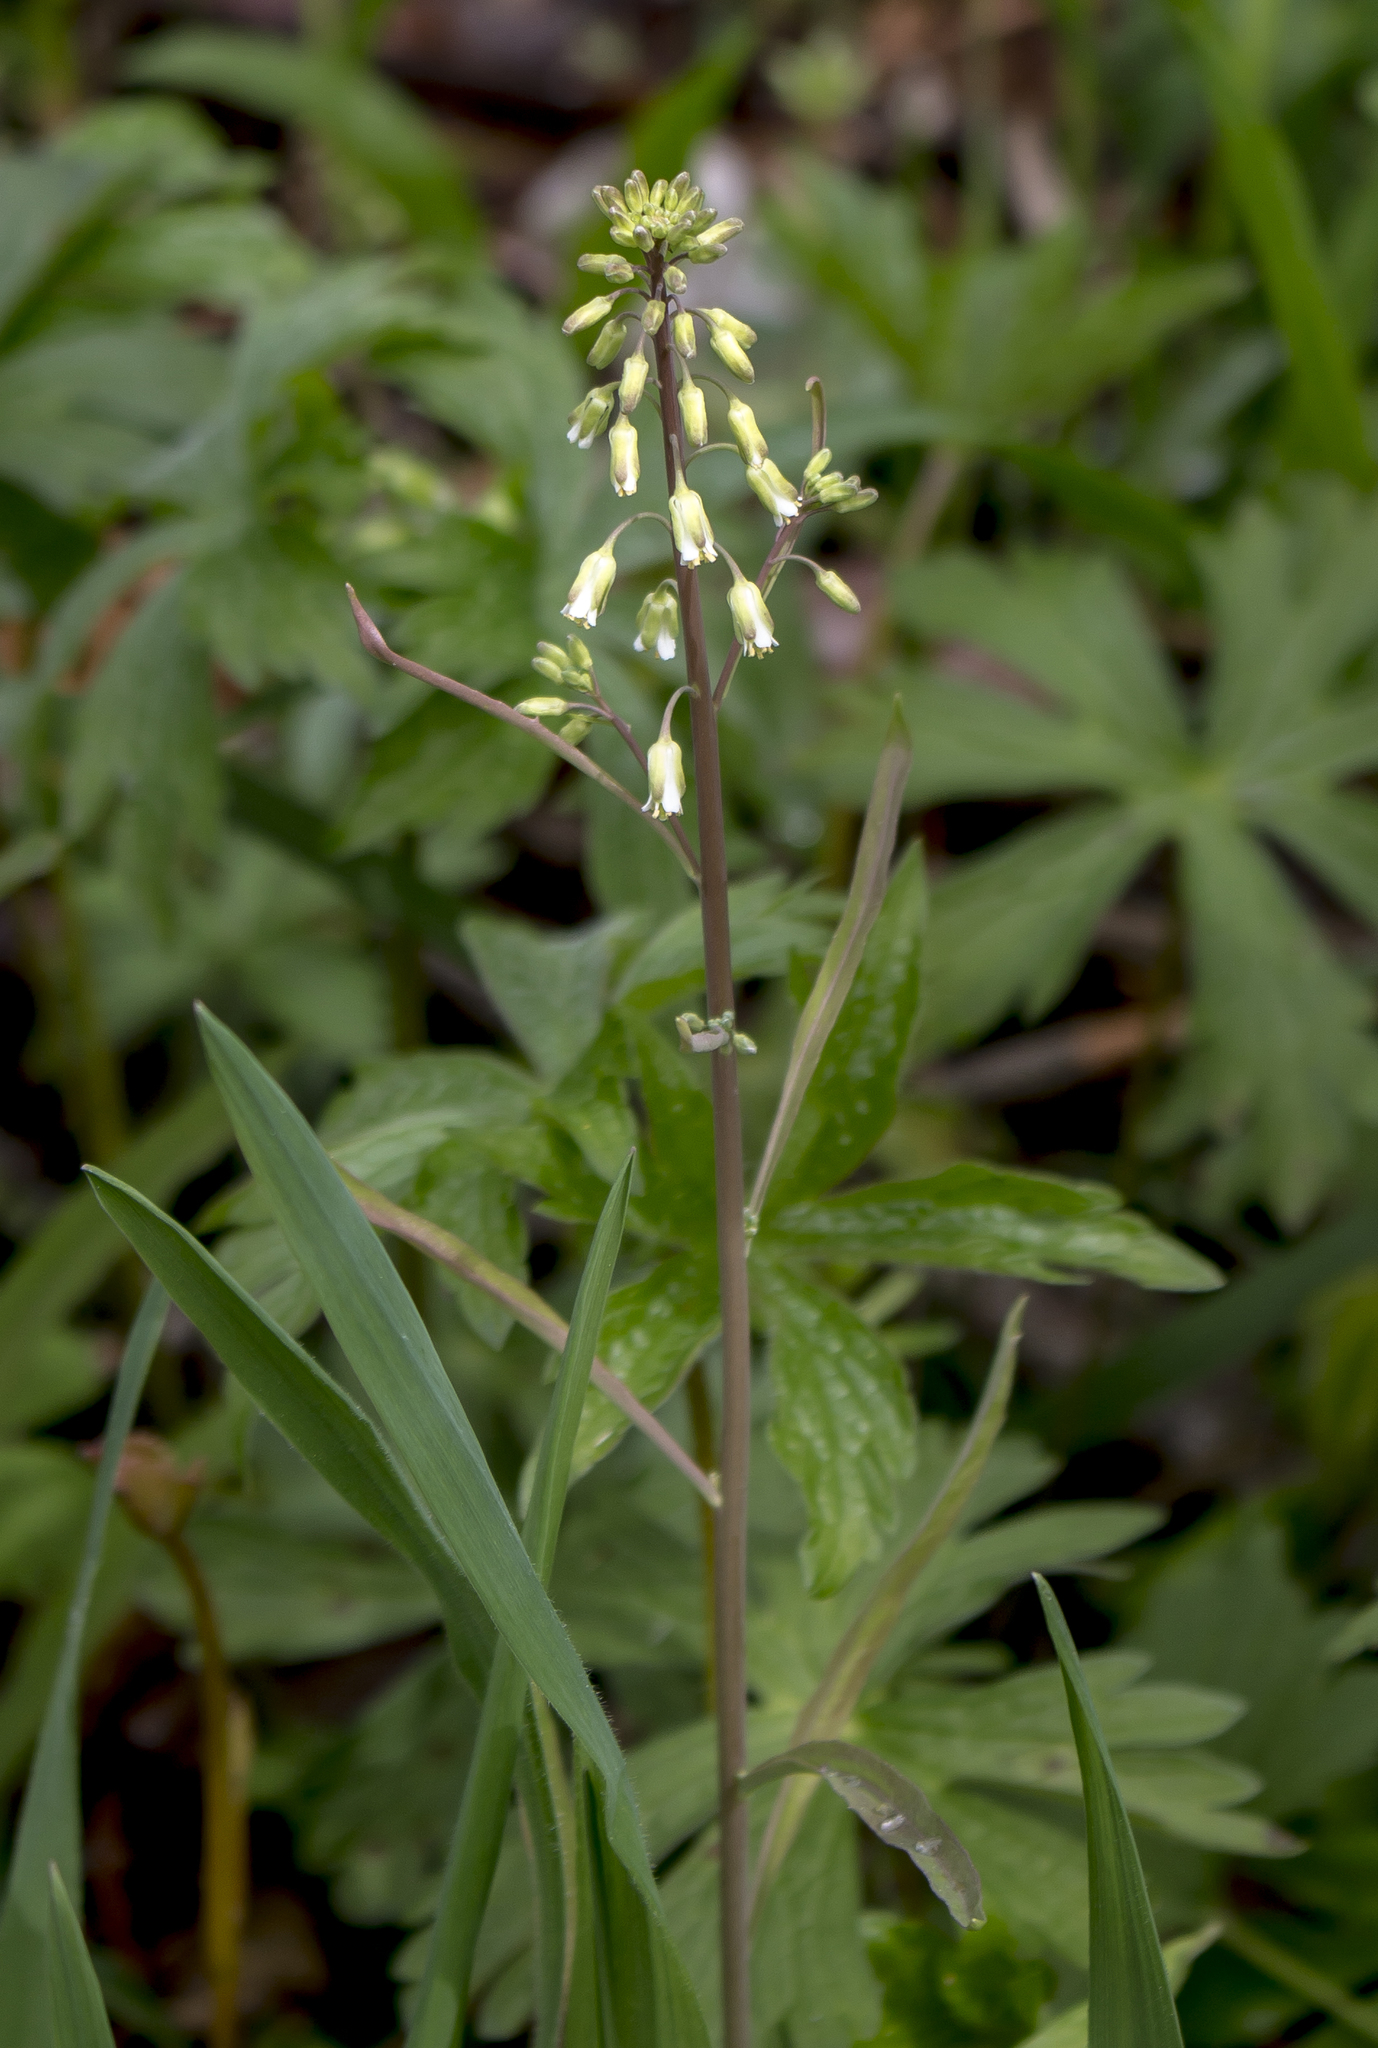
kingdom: Plantae
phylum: Tracheophyta
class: Magnoliopsida
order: Brassicales
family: Brassicaceae
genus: Borodinia
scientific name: Borodinia laevigata
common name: Smooth rockcress
